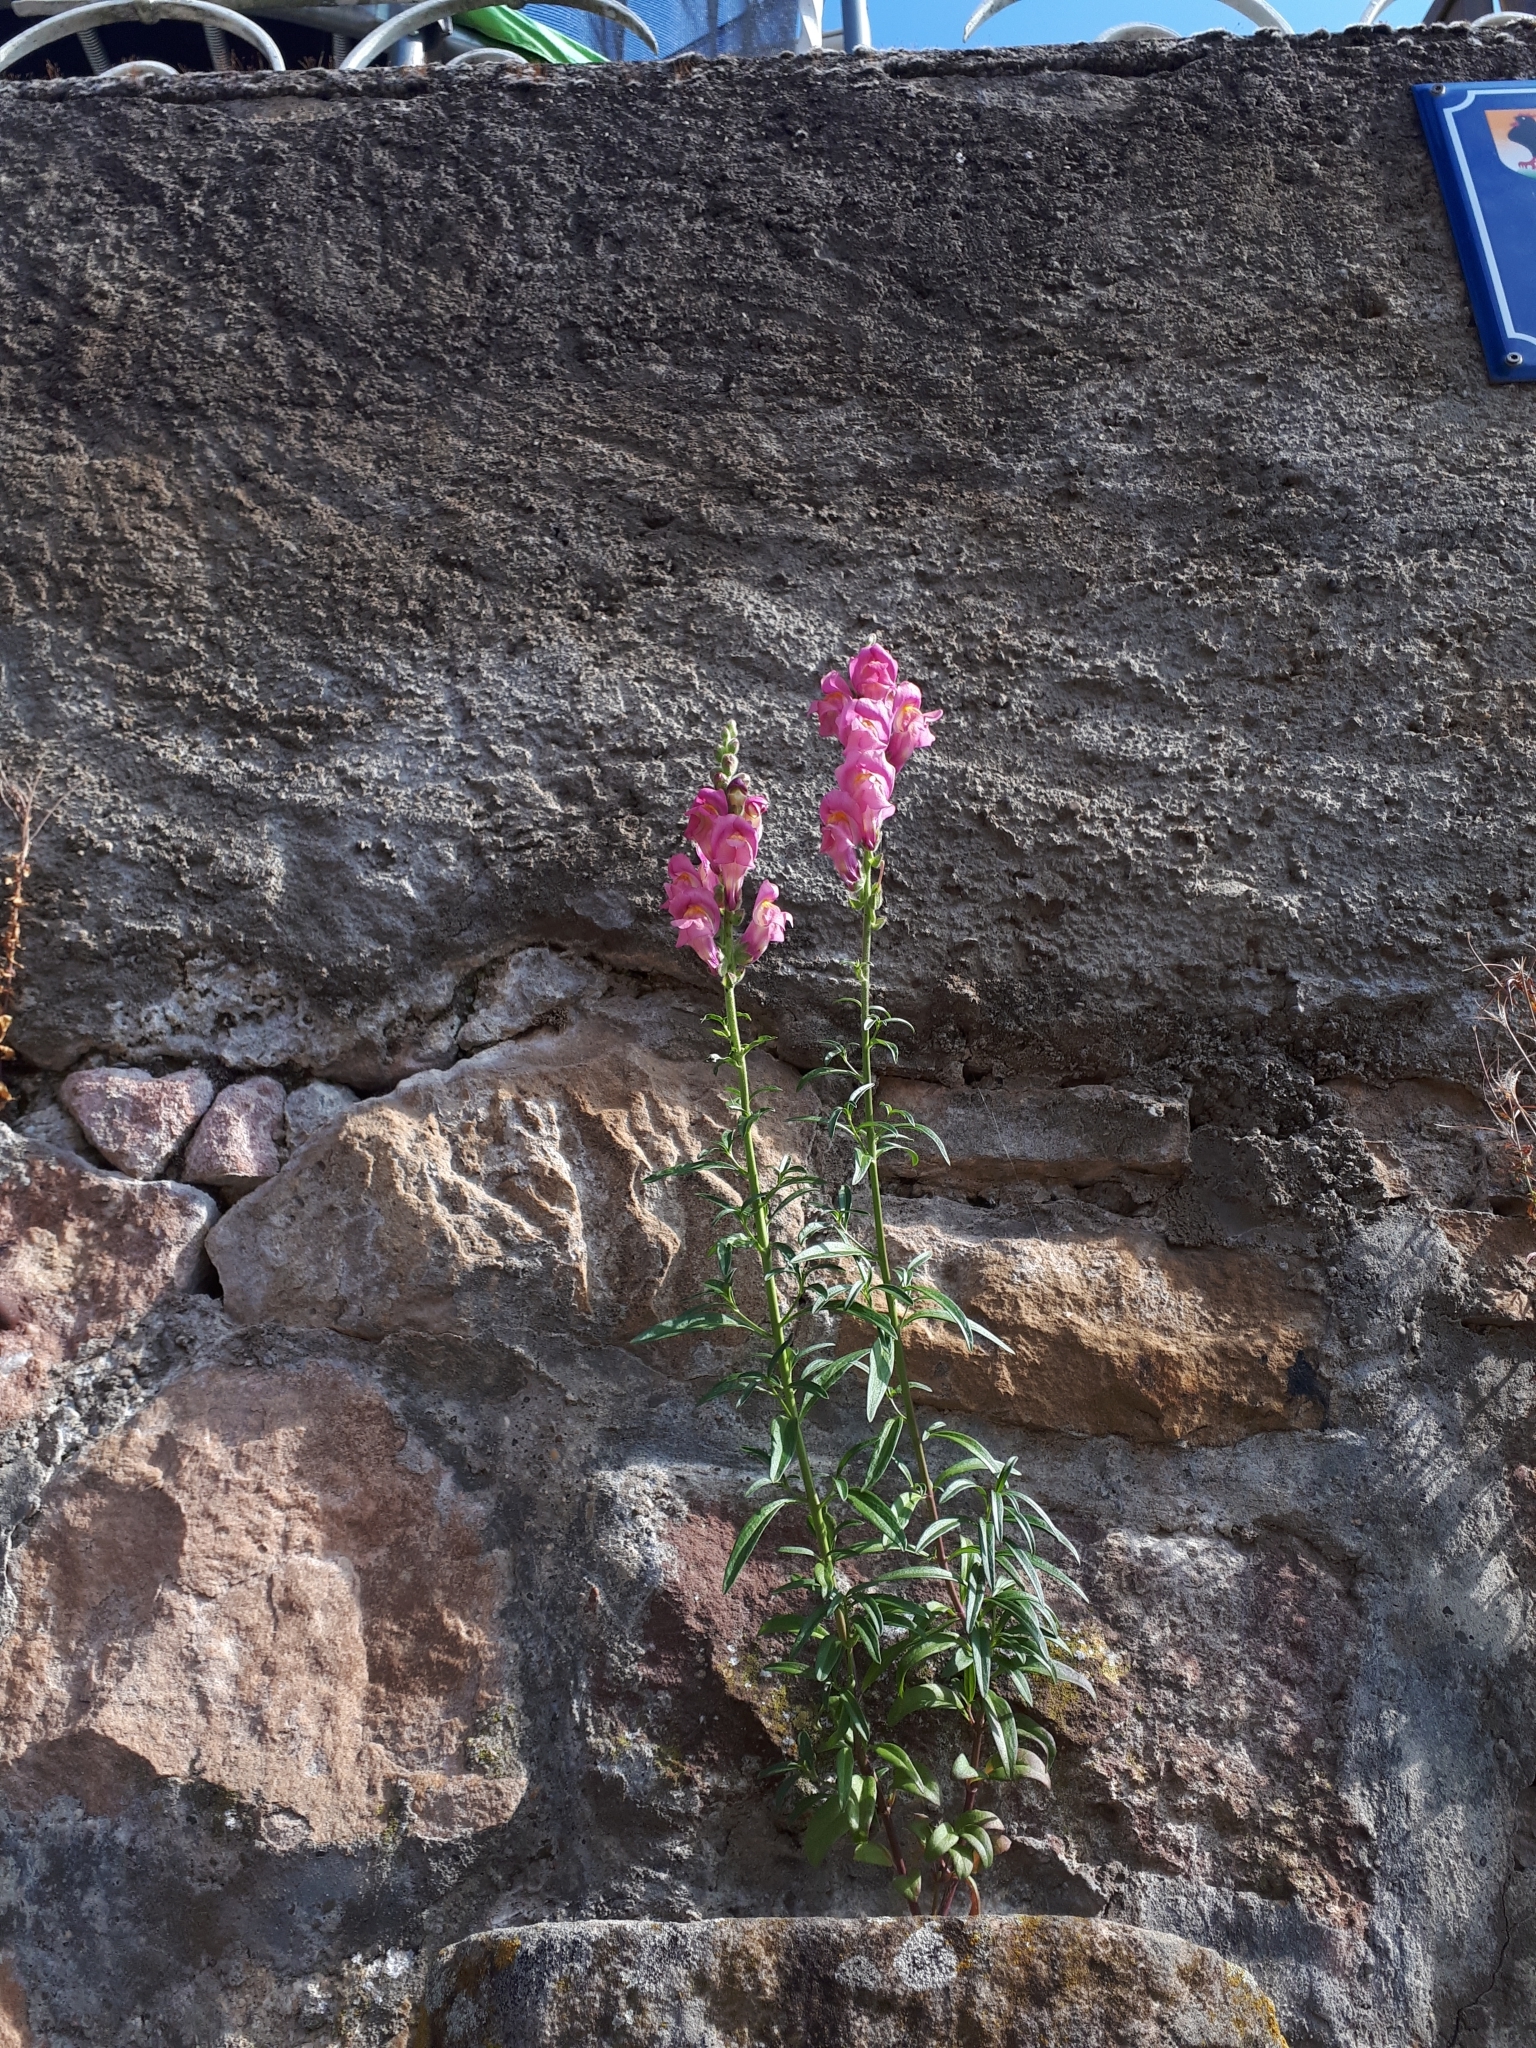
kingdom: Plantae
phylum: Tracheophyta
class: Magnoliopsida
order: Lamiales
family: Plantaginaceae
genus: Antirrhinum
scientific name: Antirrhinum majus
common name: Snapdragon
